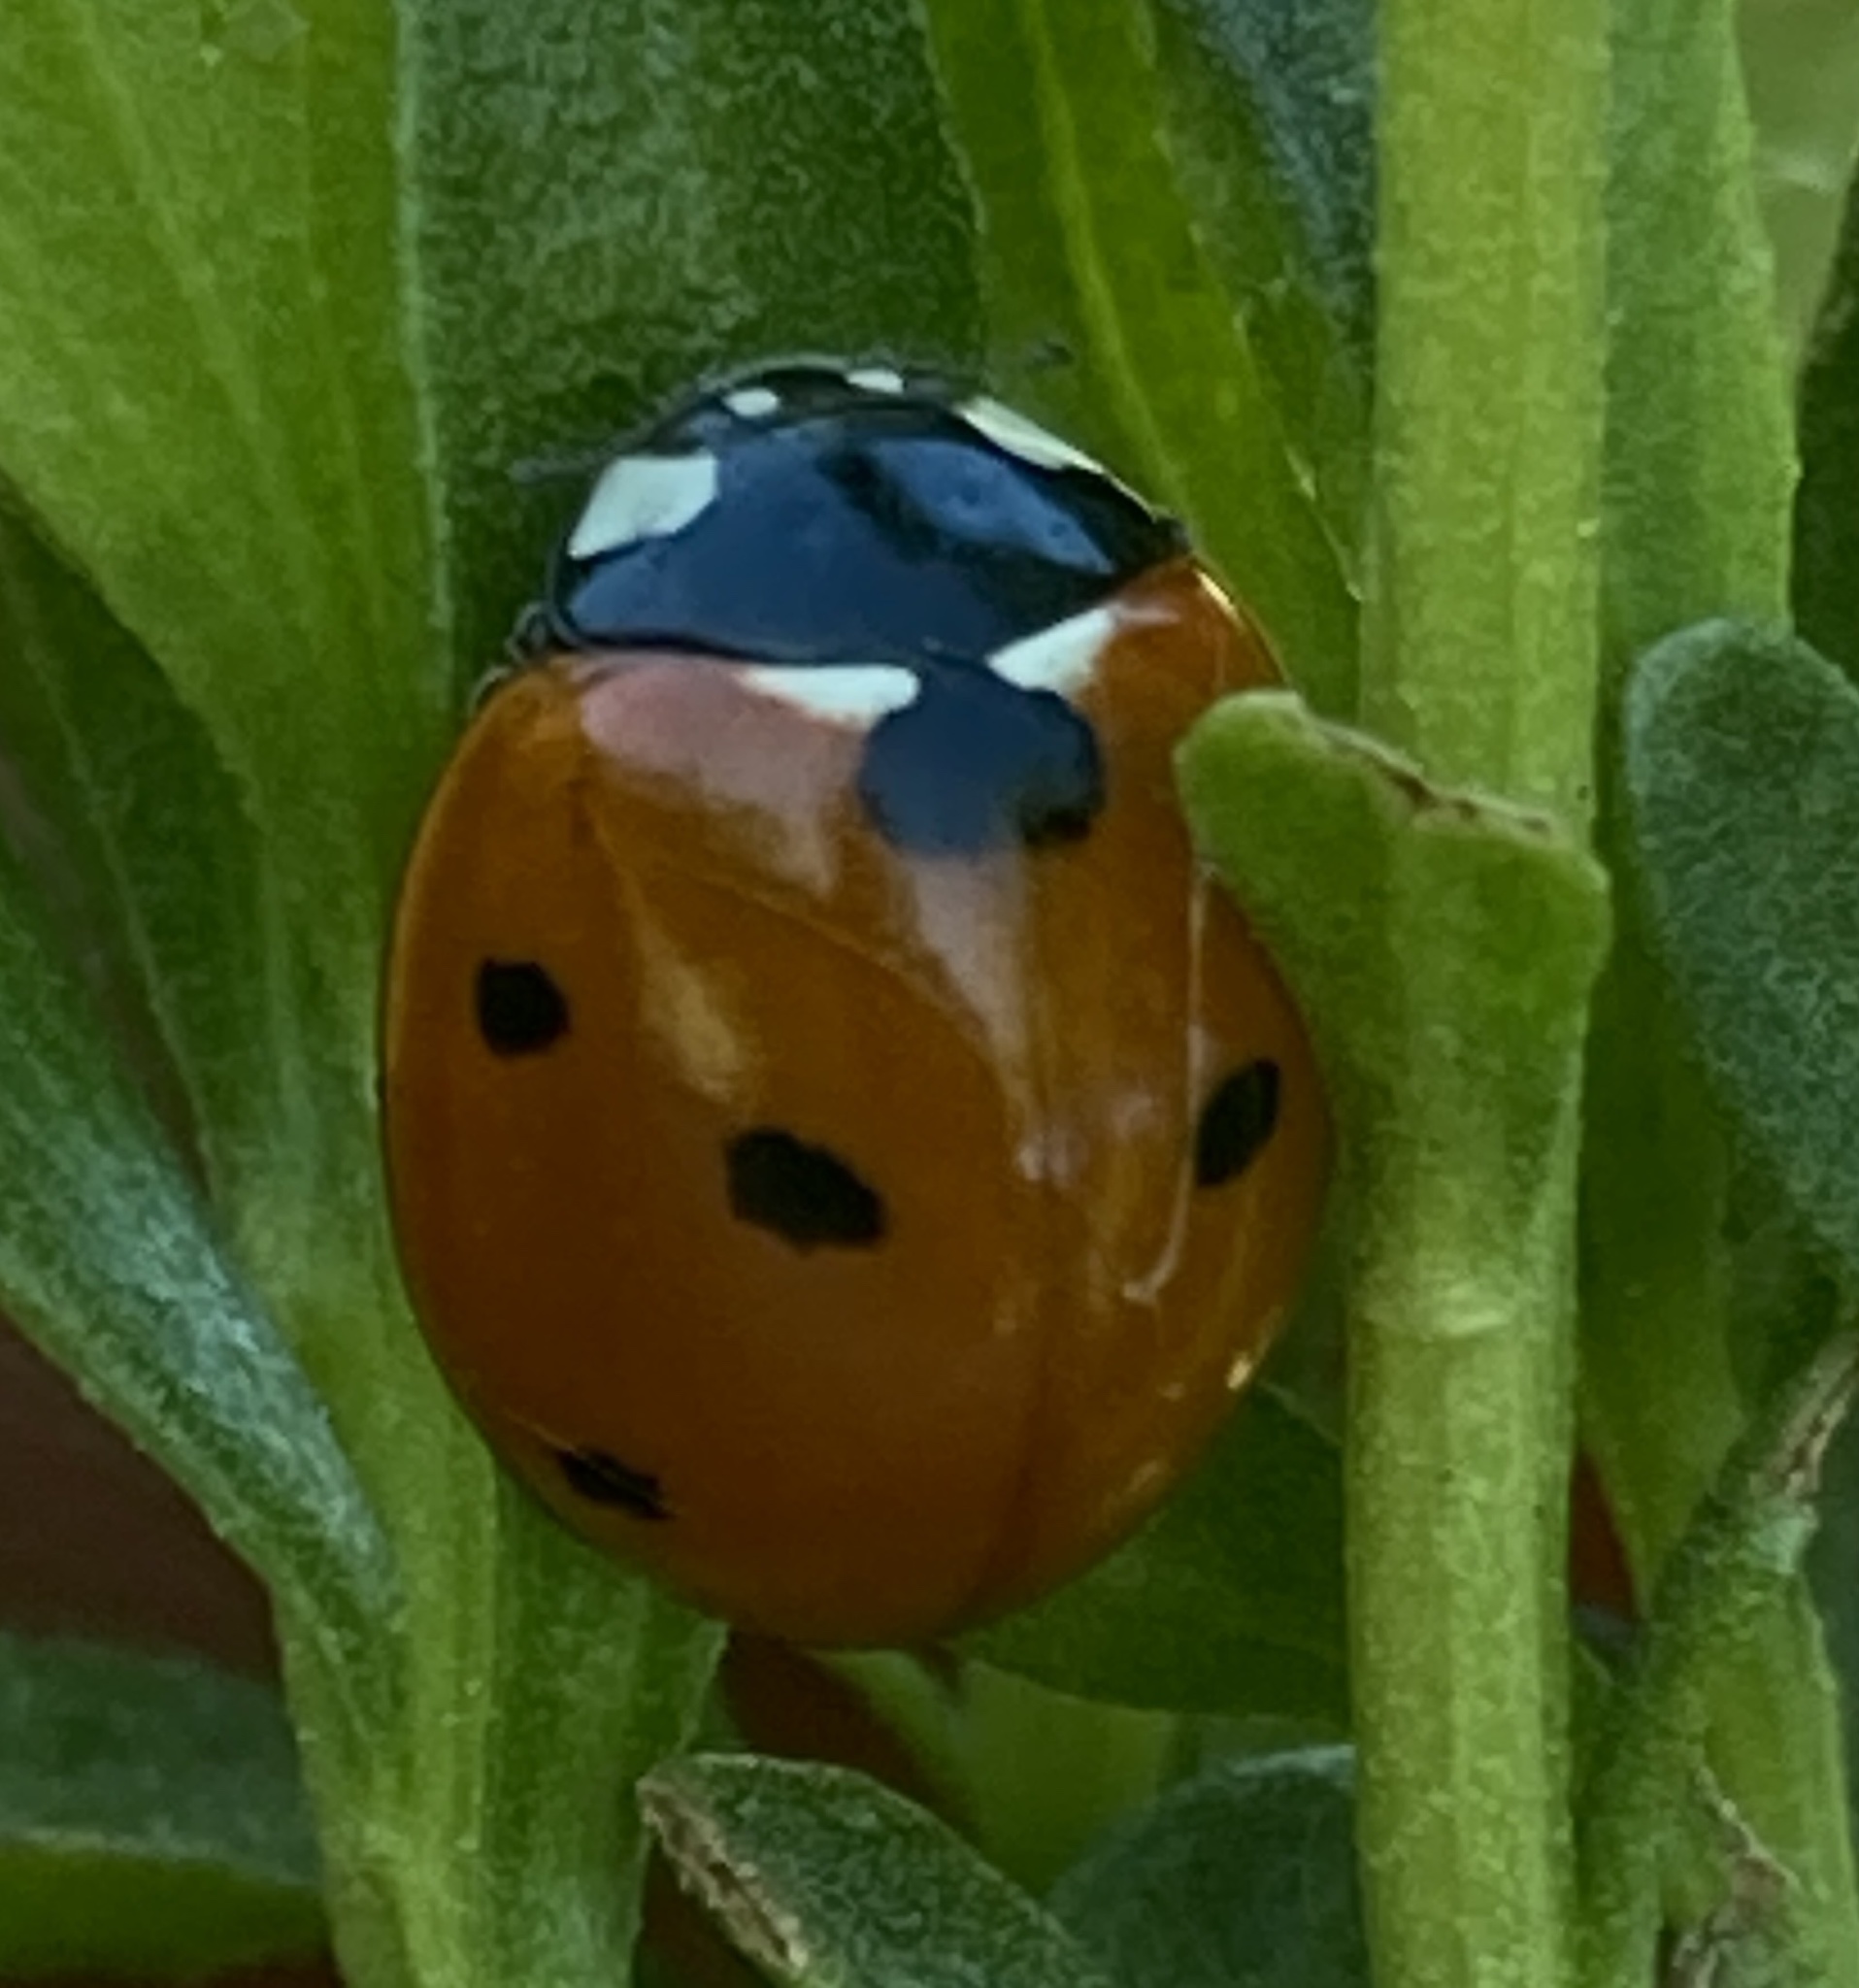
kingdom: Animalia
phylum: Arthropoda
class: Insecta
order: Coleoptera
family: Coccinellidae
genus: Coccinella
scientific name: Coccinella septempunctata
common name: Sevenspotted lady beetle
